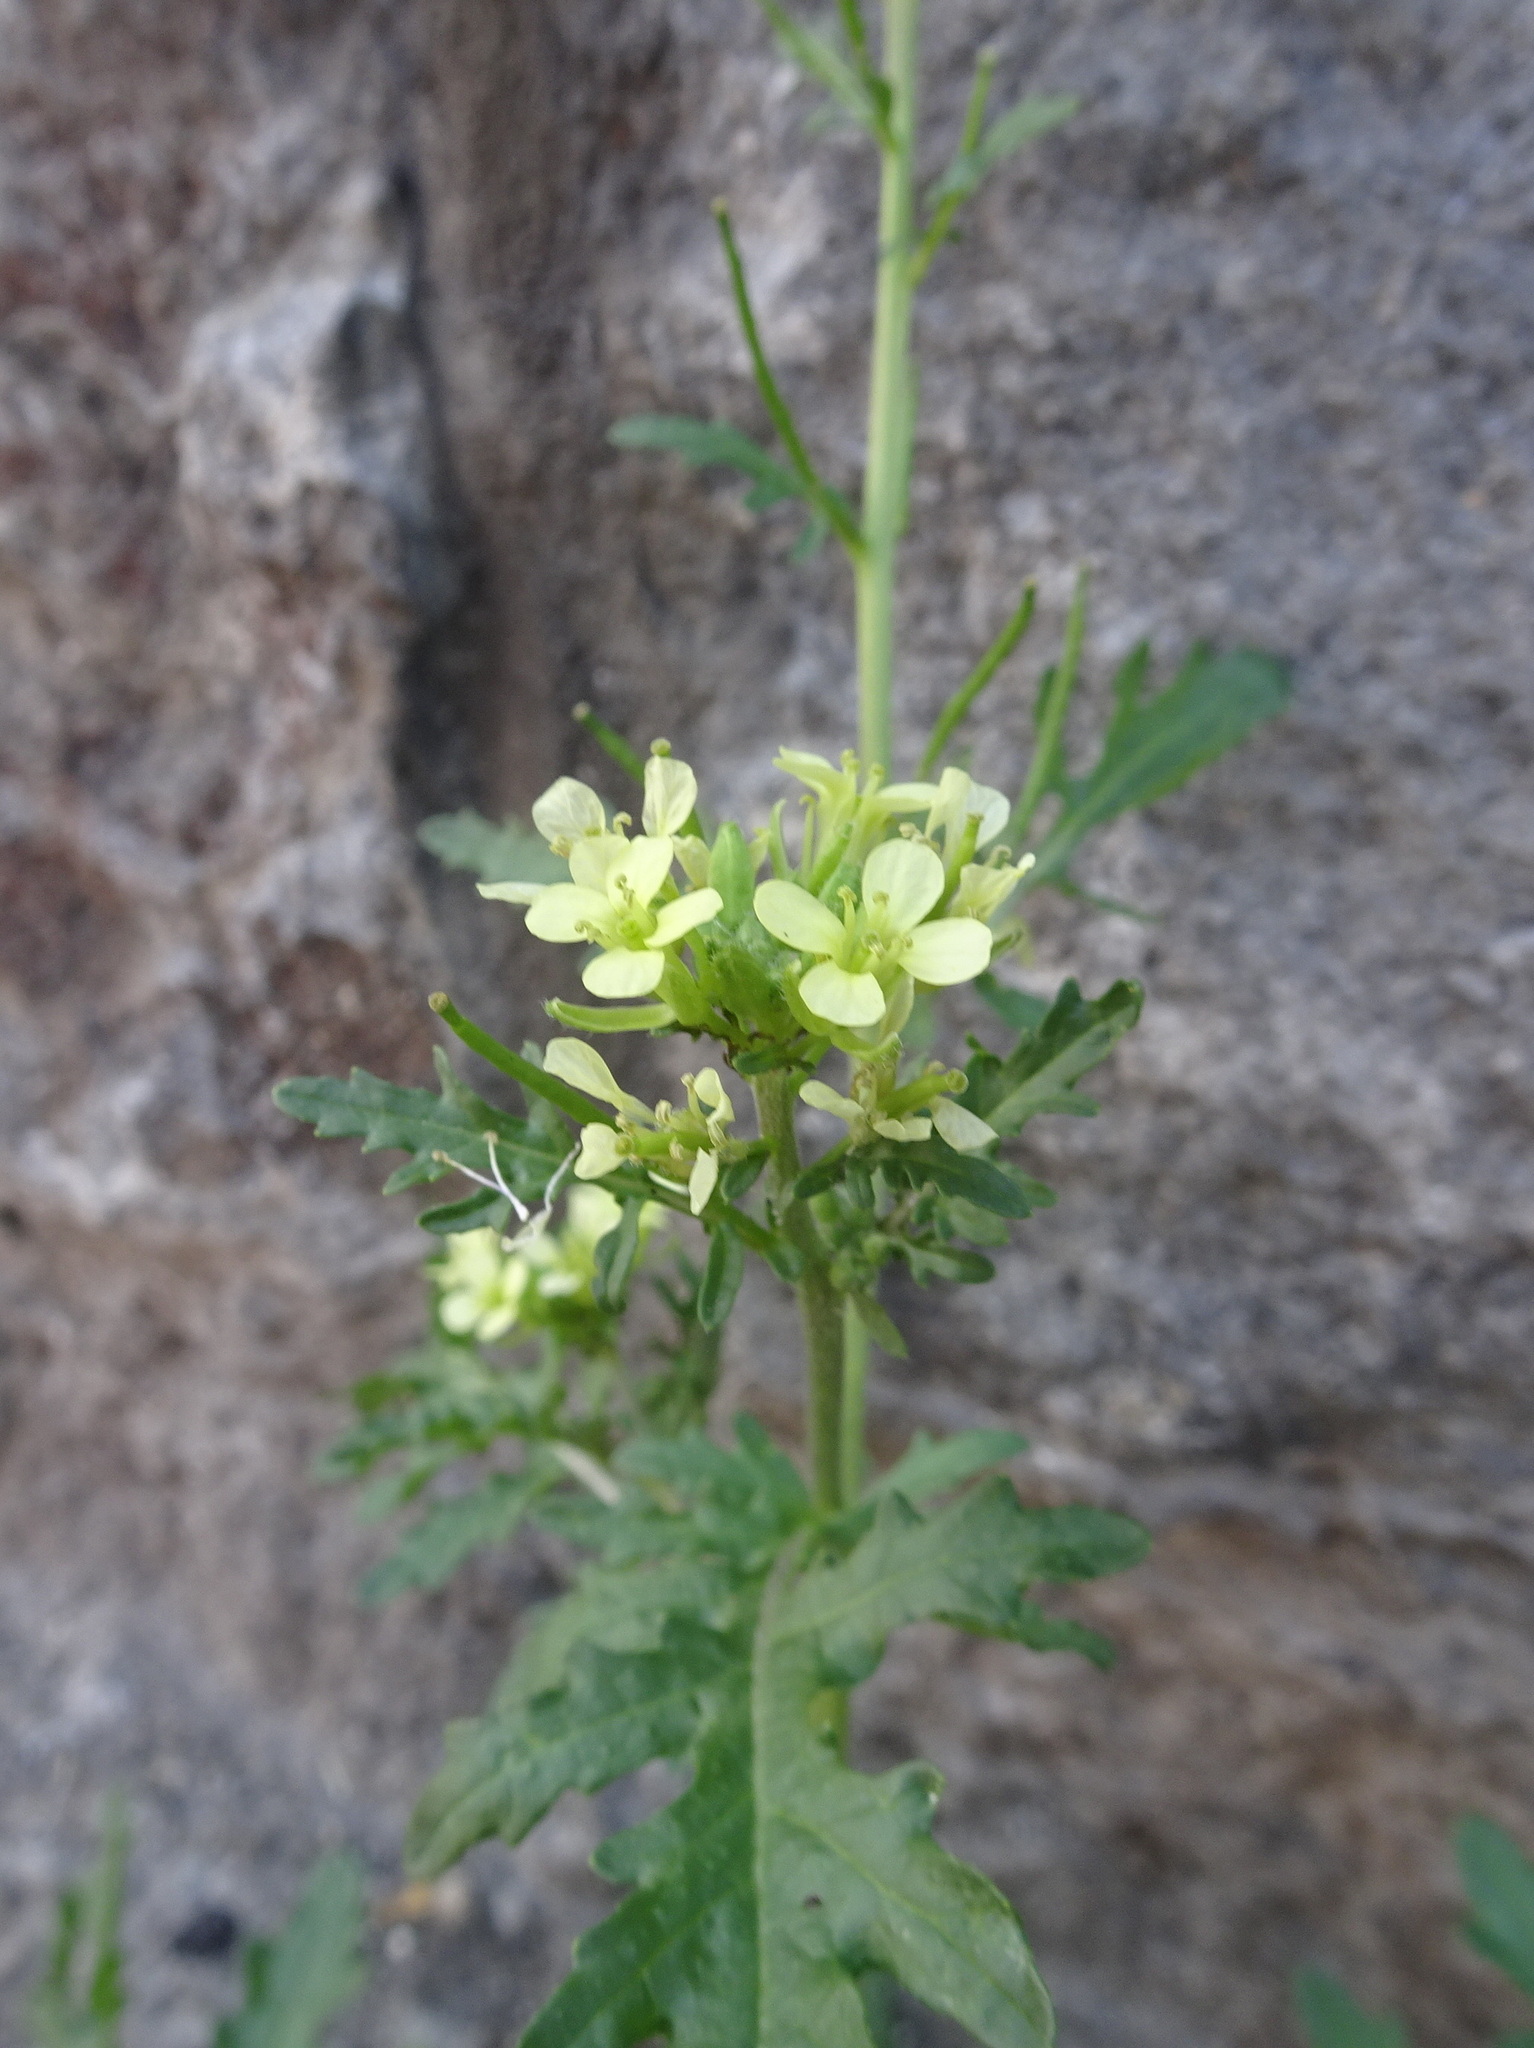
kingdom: Plantae
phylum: Tracheophyta
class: Magnoliopsida
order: Brassicales
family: Brassicaceae
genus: Erucastrum
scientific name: Erucastrum gallicum
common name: Hairy rocket
